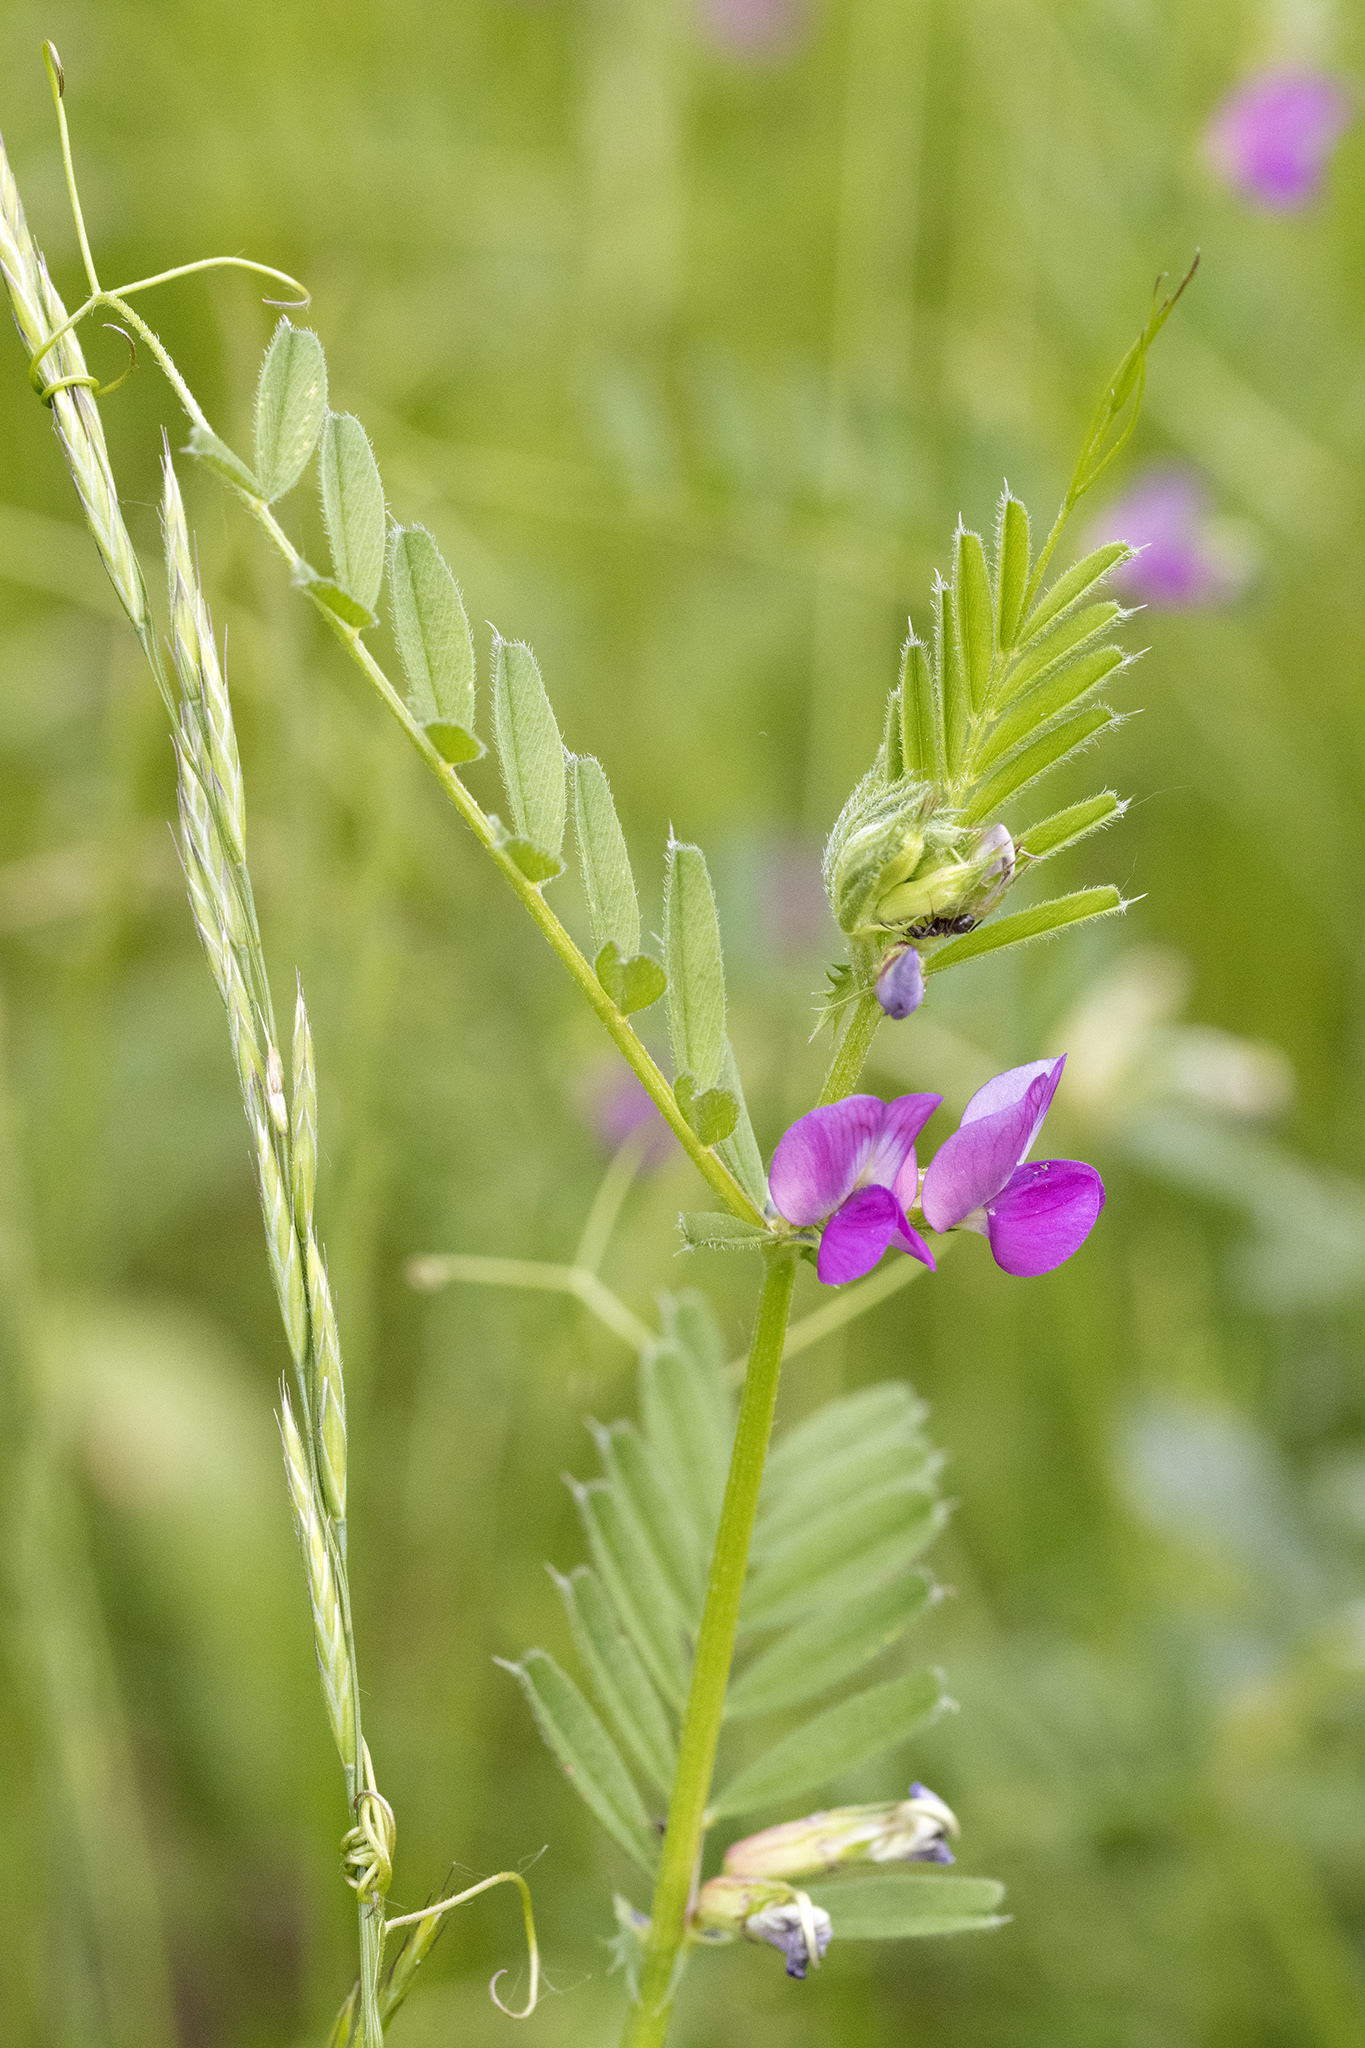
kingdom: Plantae
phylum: Tracheophyta
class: Magnoliopsida
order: Fabales
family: Fabaceae
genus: Vicia
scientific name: Vicia sativa
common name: Garden vetch
